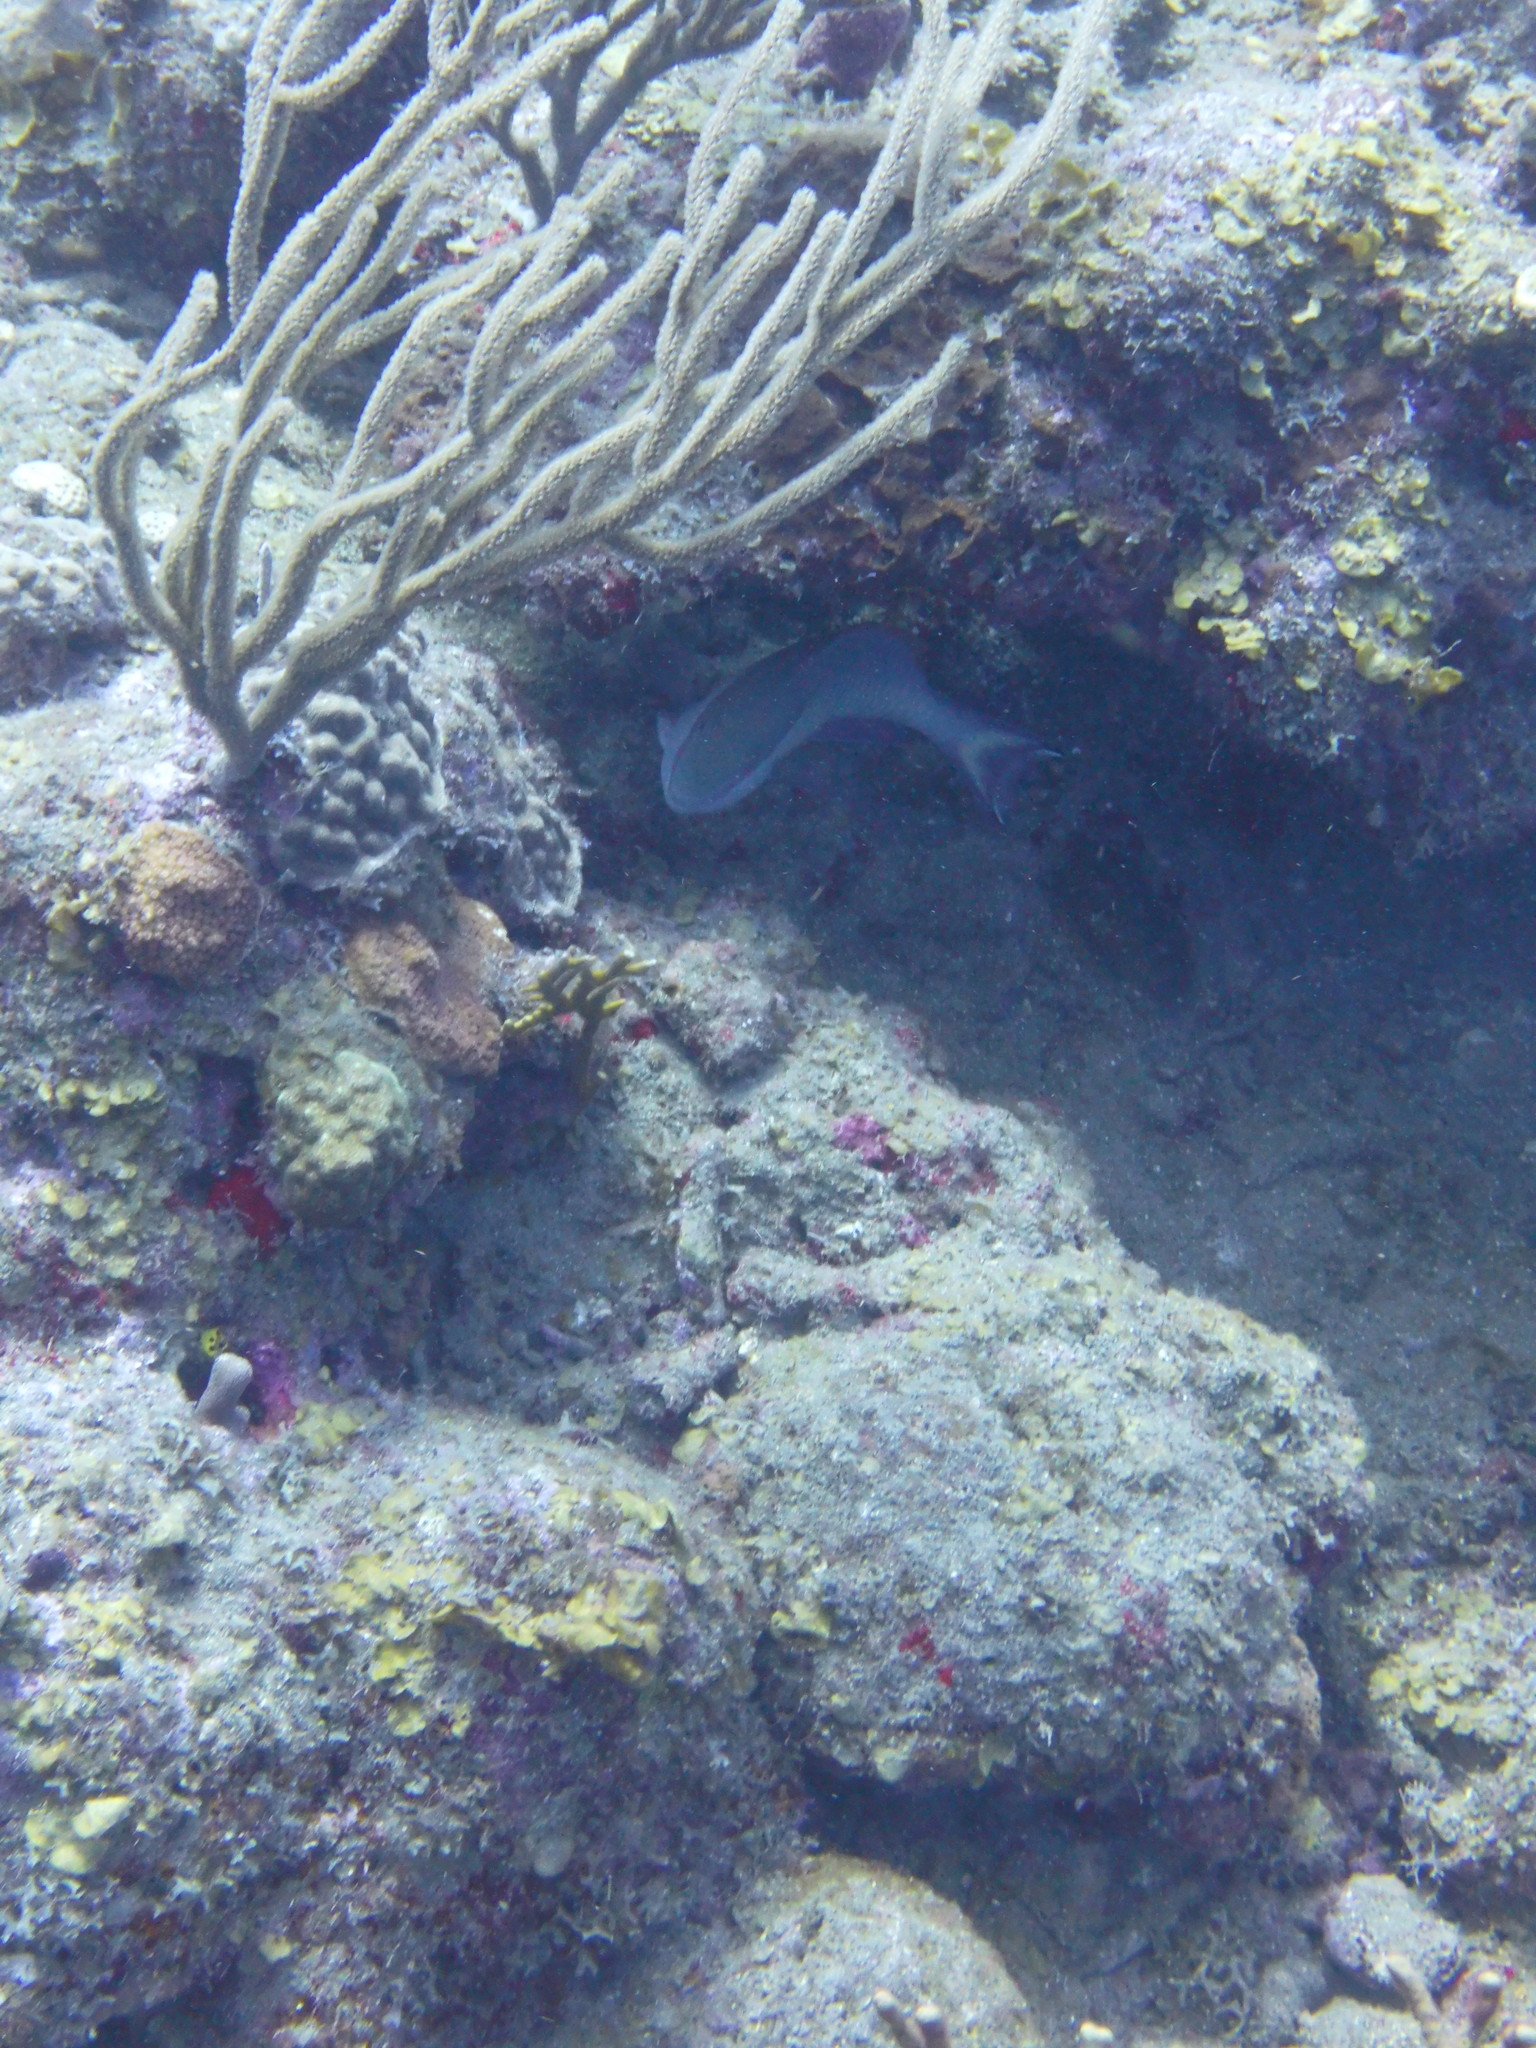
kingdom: Animalia
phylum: Chordata
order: Perciformes
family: Scaridae
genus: Sparisoma
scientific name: Sparisoma aurofrenatum
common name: Redband parrotfish
